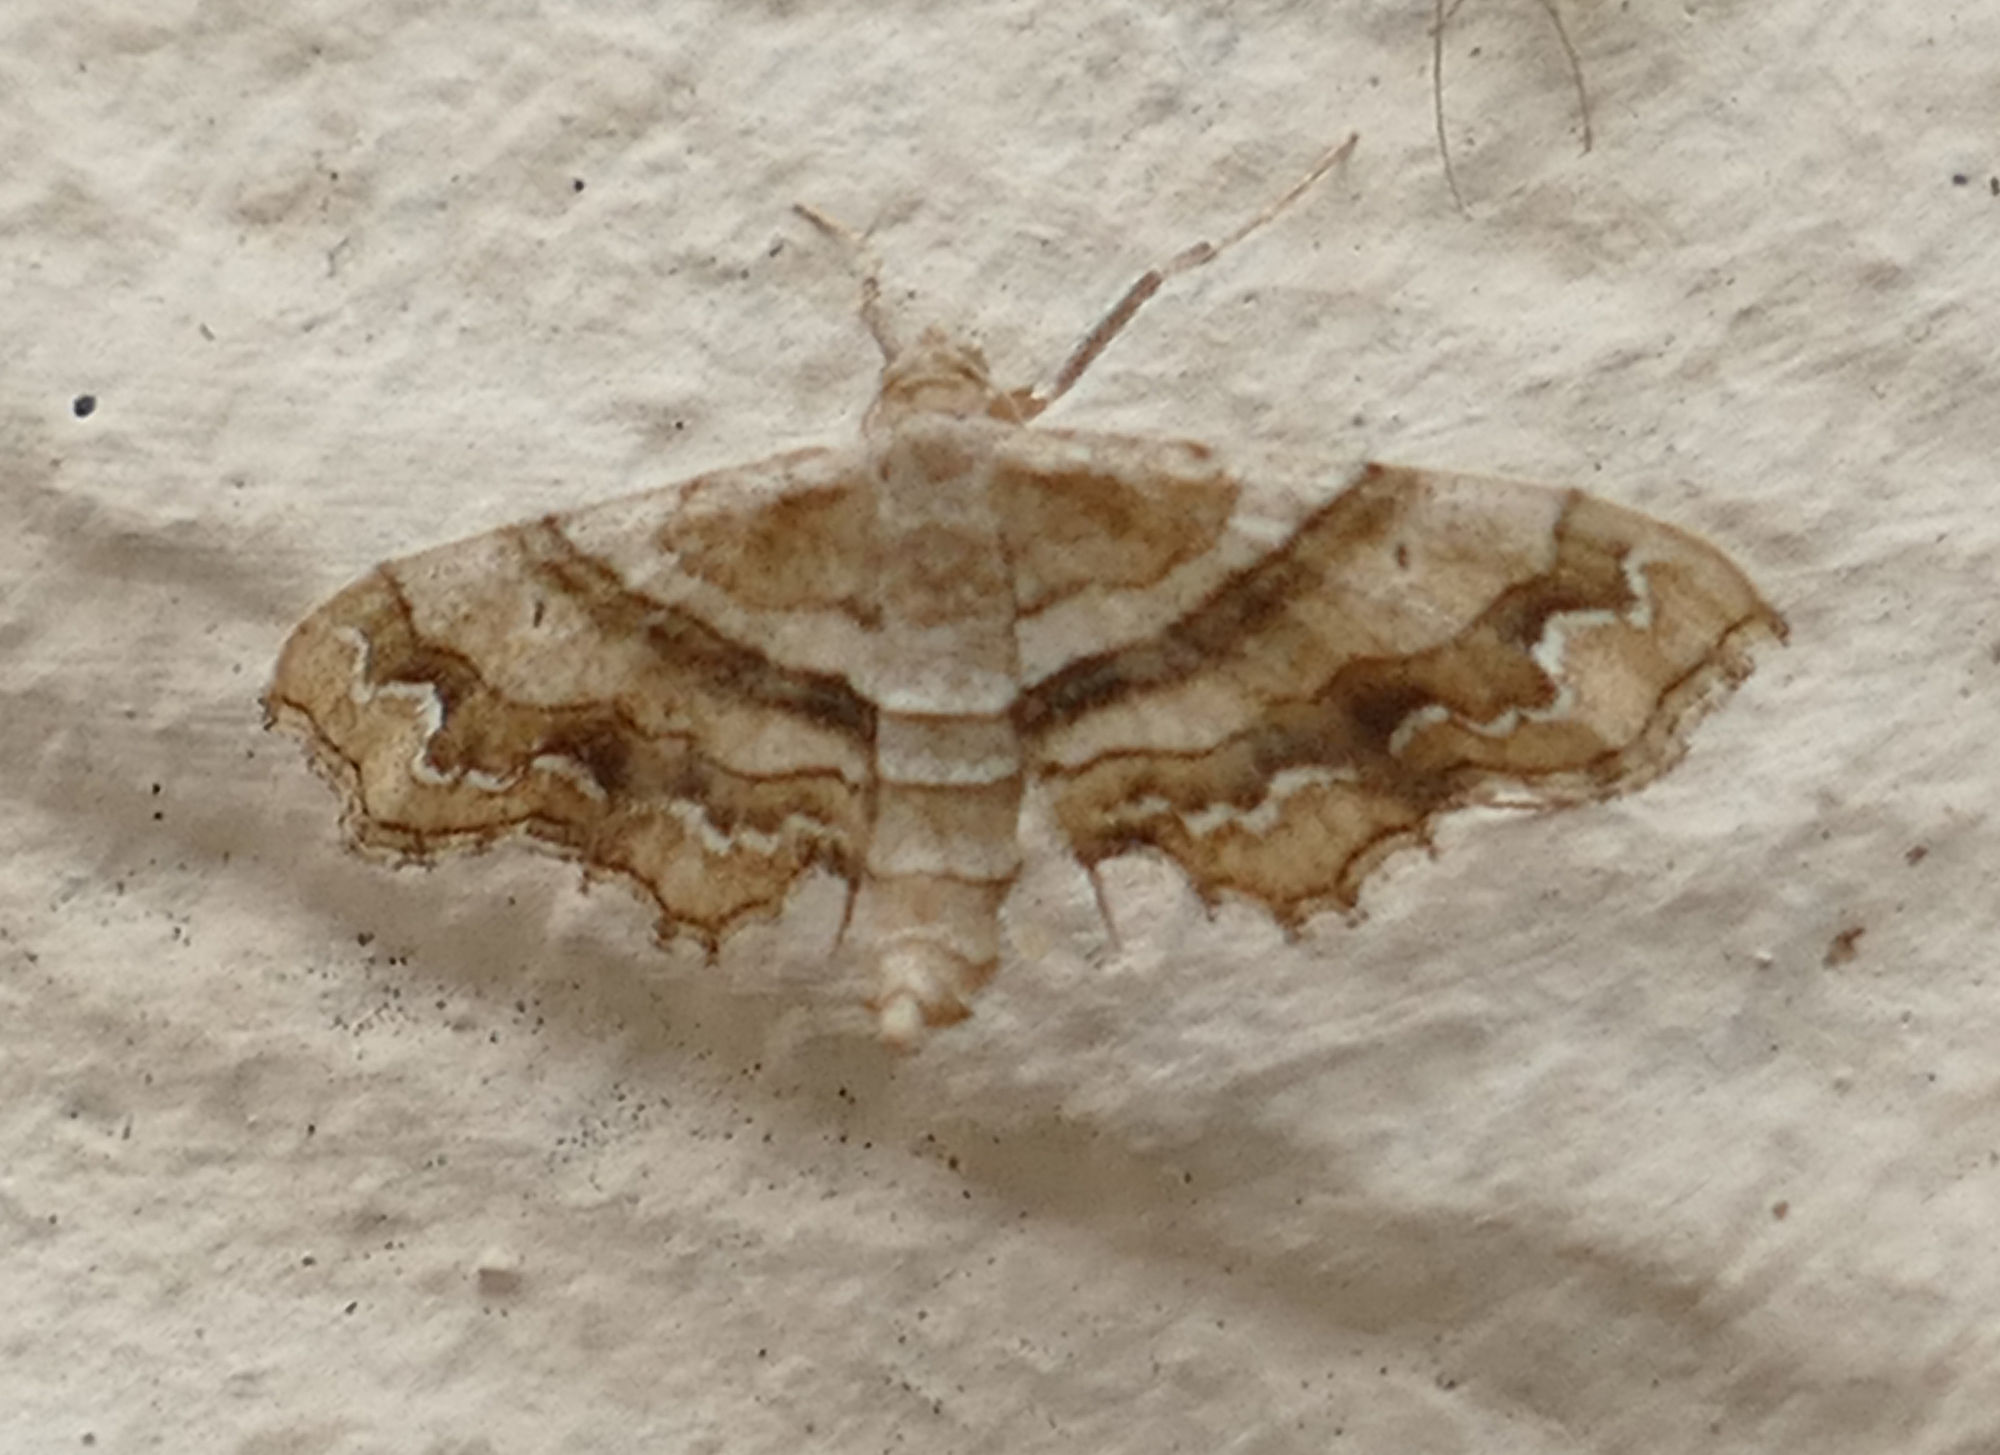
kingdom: Animalia
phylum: Arthropoda
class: Insecta
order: Lepidoptera
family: Geometridae
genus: Odontoptila
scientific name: Odontoptila obrimo
